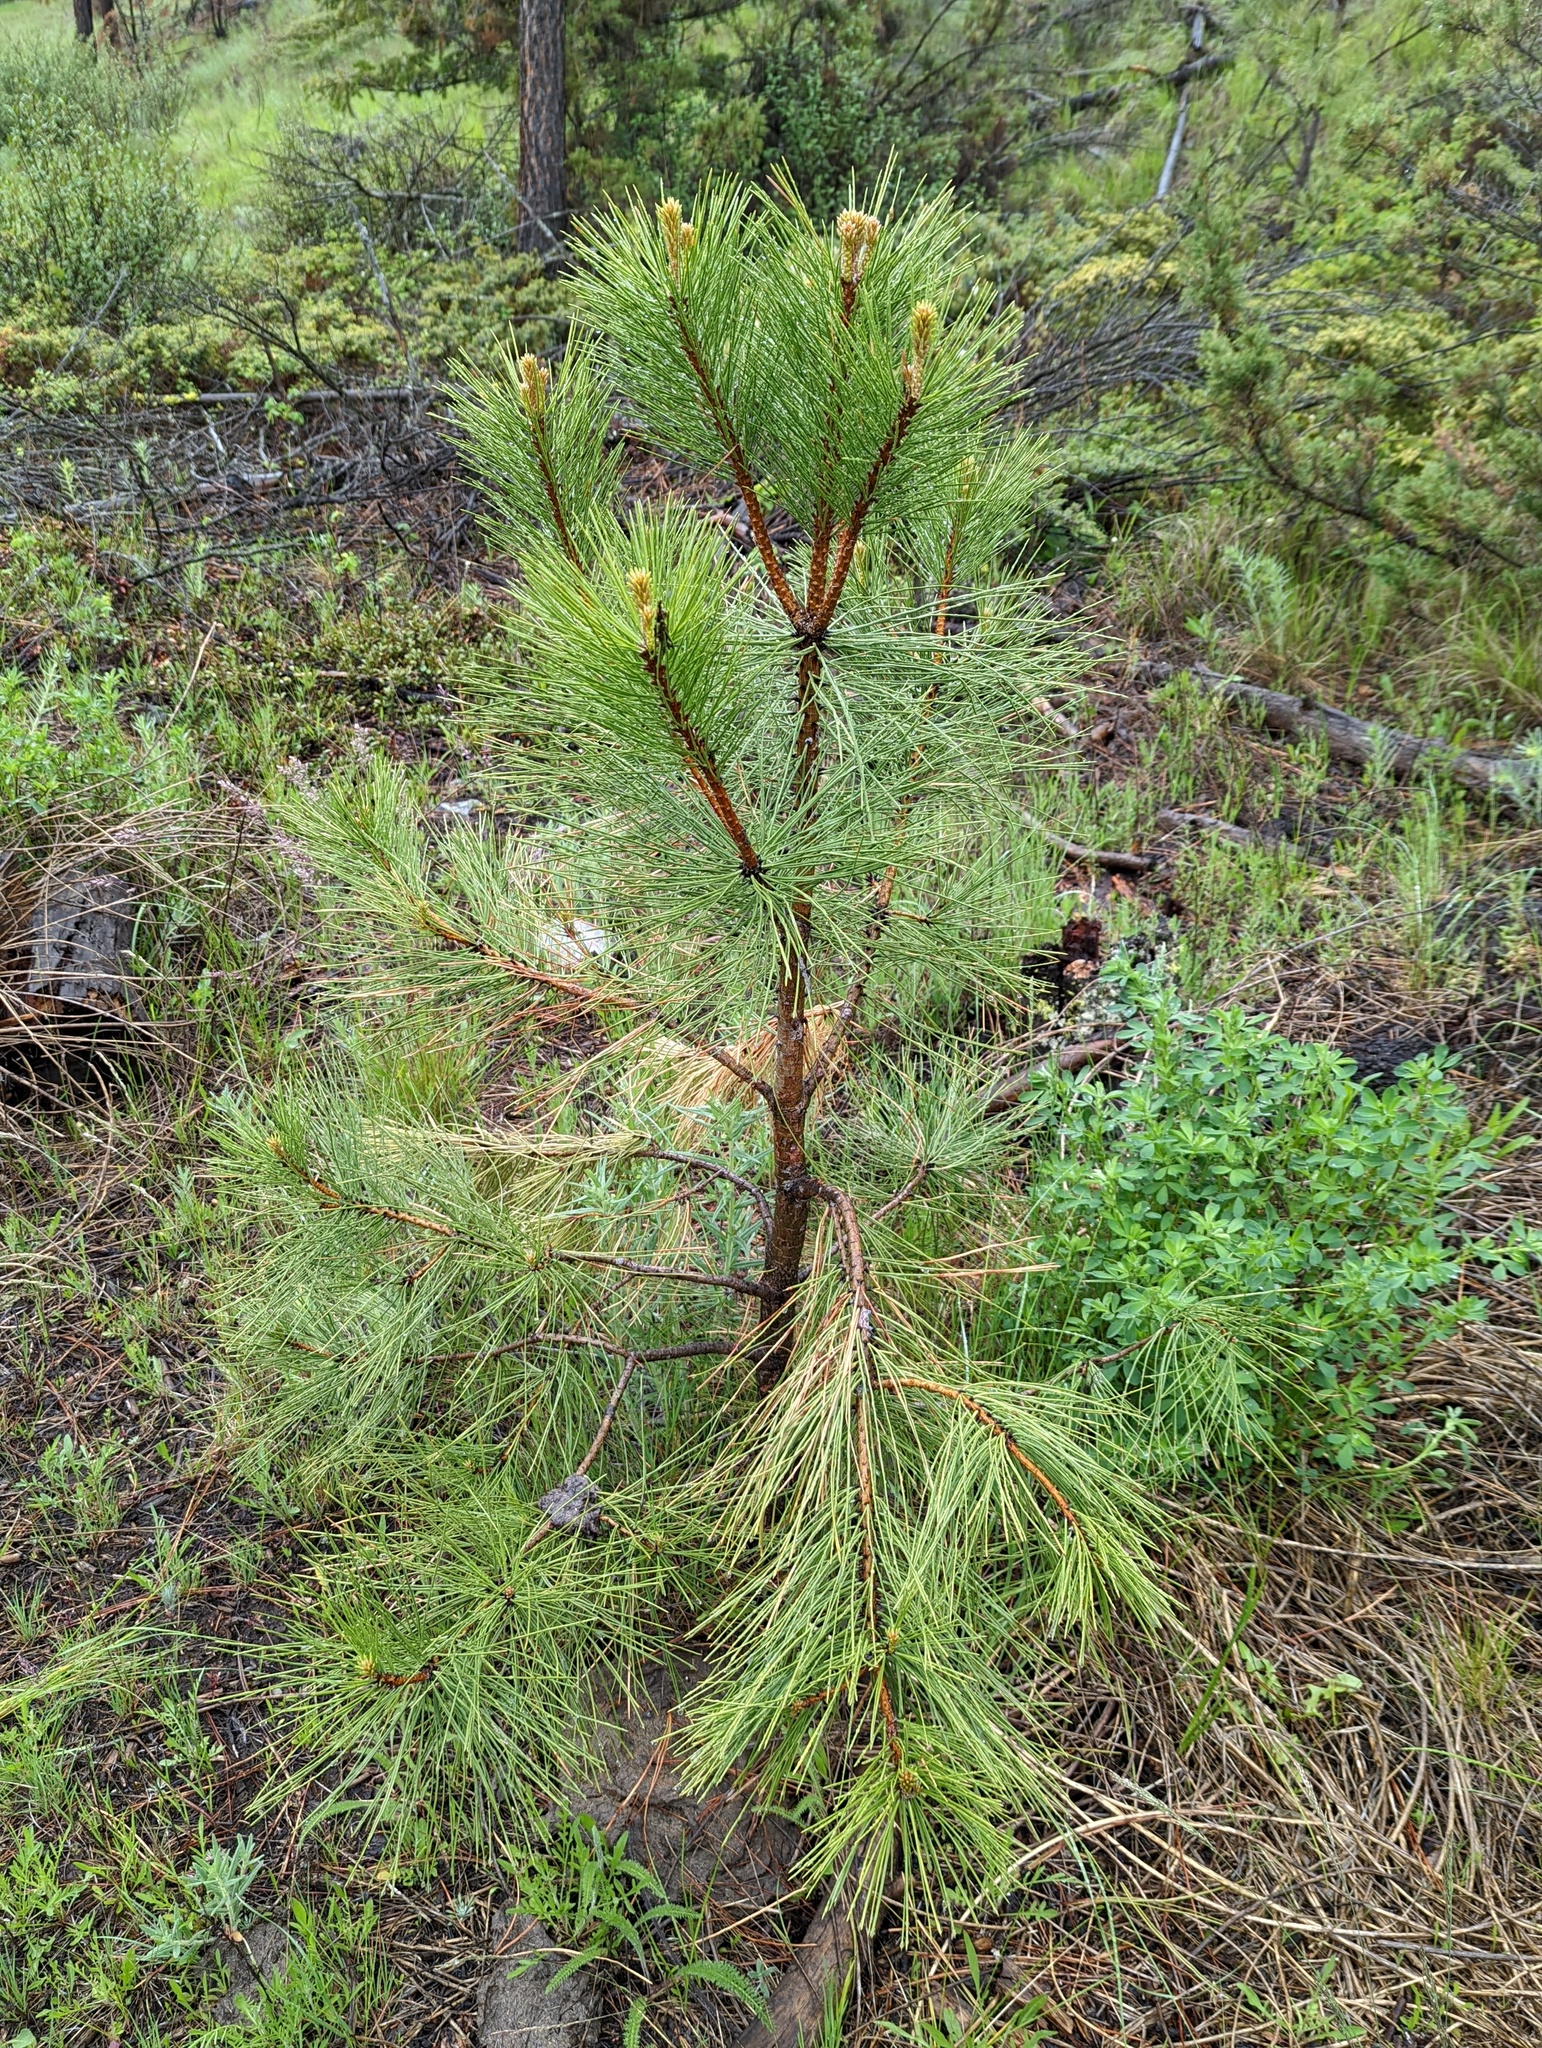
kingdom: Plantae
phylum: Tracheophyta
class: Pinopsida
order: Pinales
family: Pinaceae
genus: Pinus
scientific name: Pinus contorta
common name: Lodgepole pine
